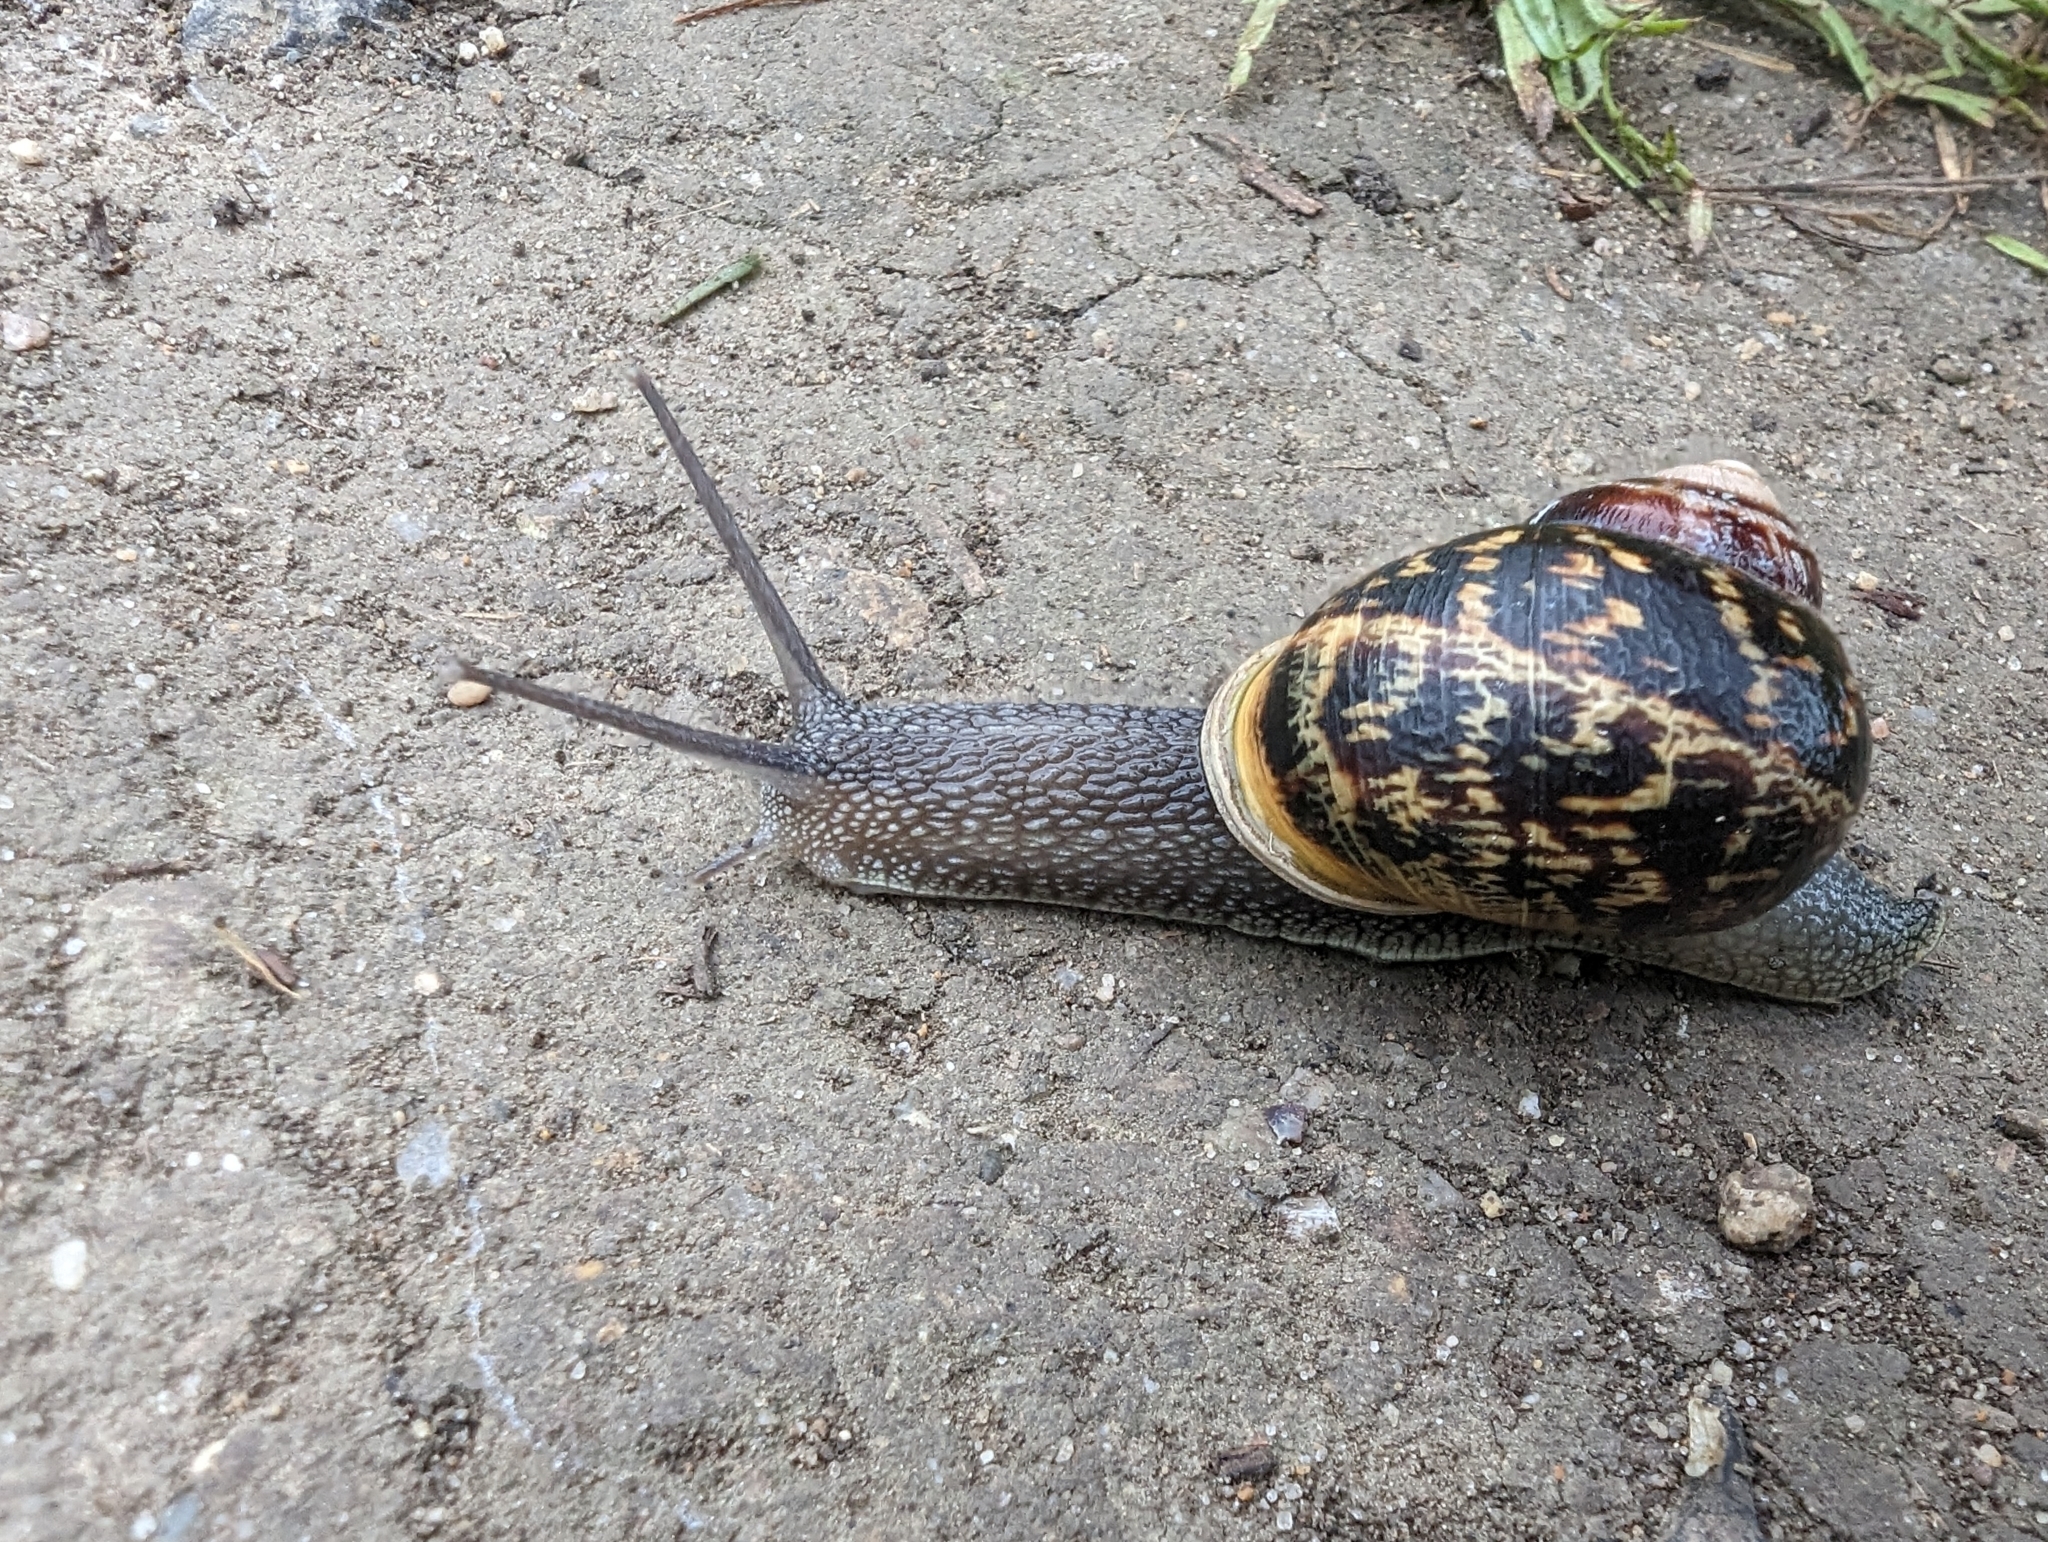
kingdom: Animalia
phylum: Mollusca
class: Gastropoda
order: Stylommatophora
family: Helicidae
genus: Cornu
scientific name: Cornu aspersum
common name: Brown garden snail
